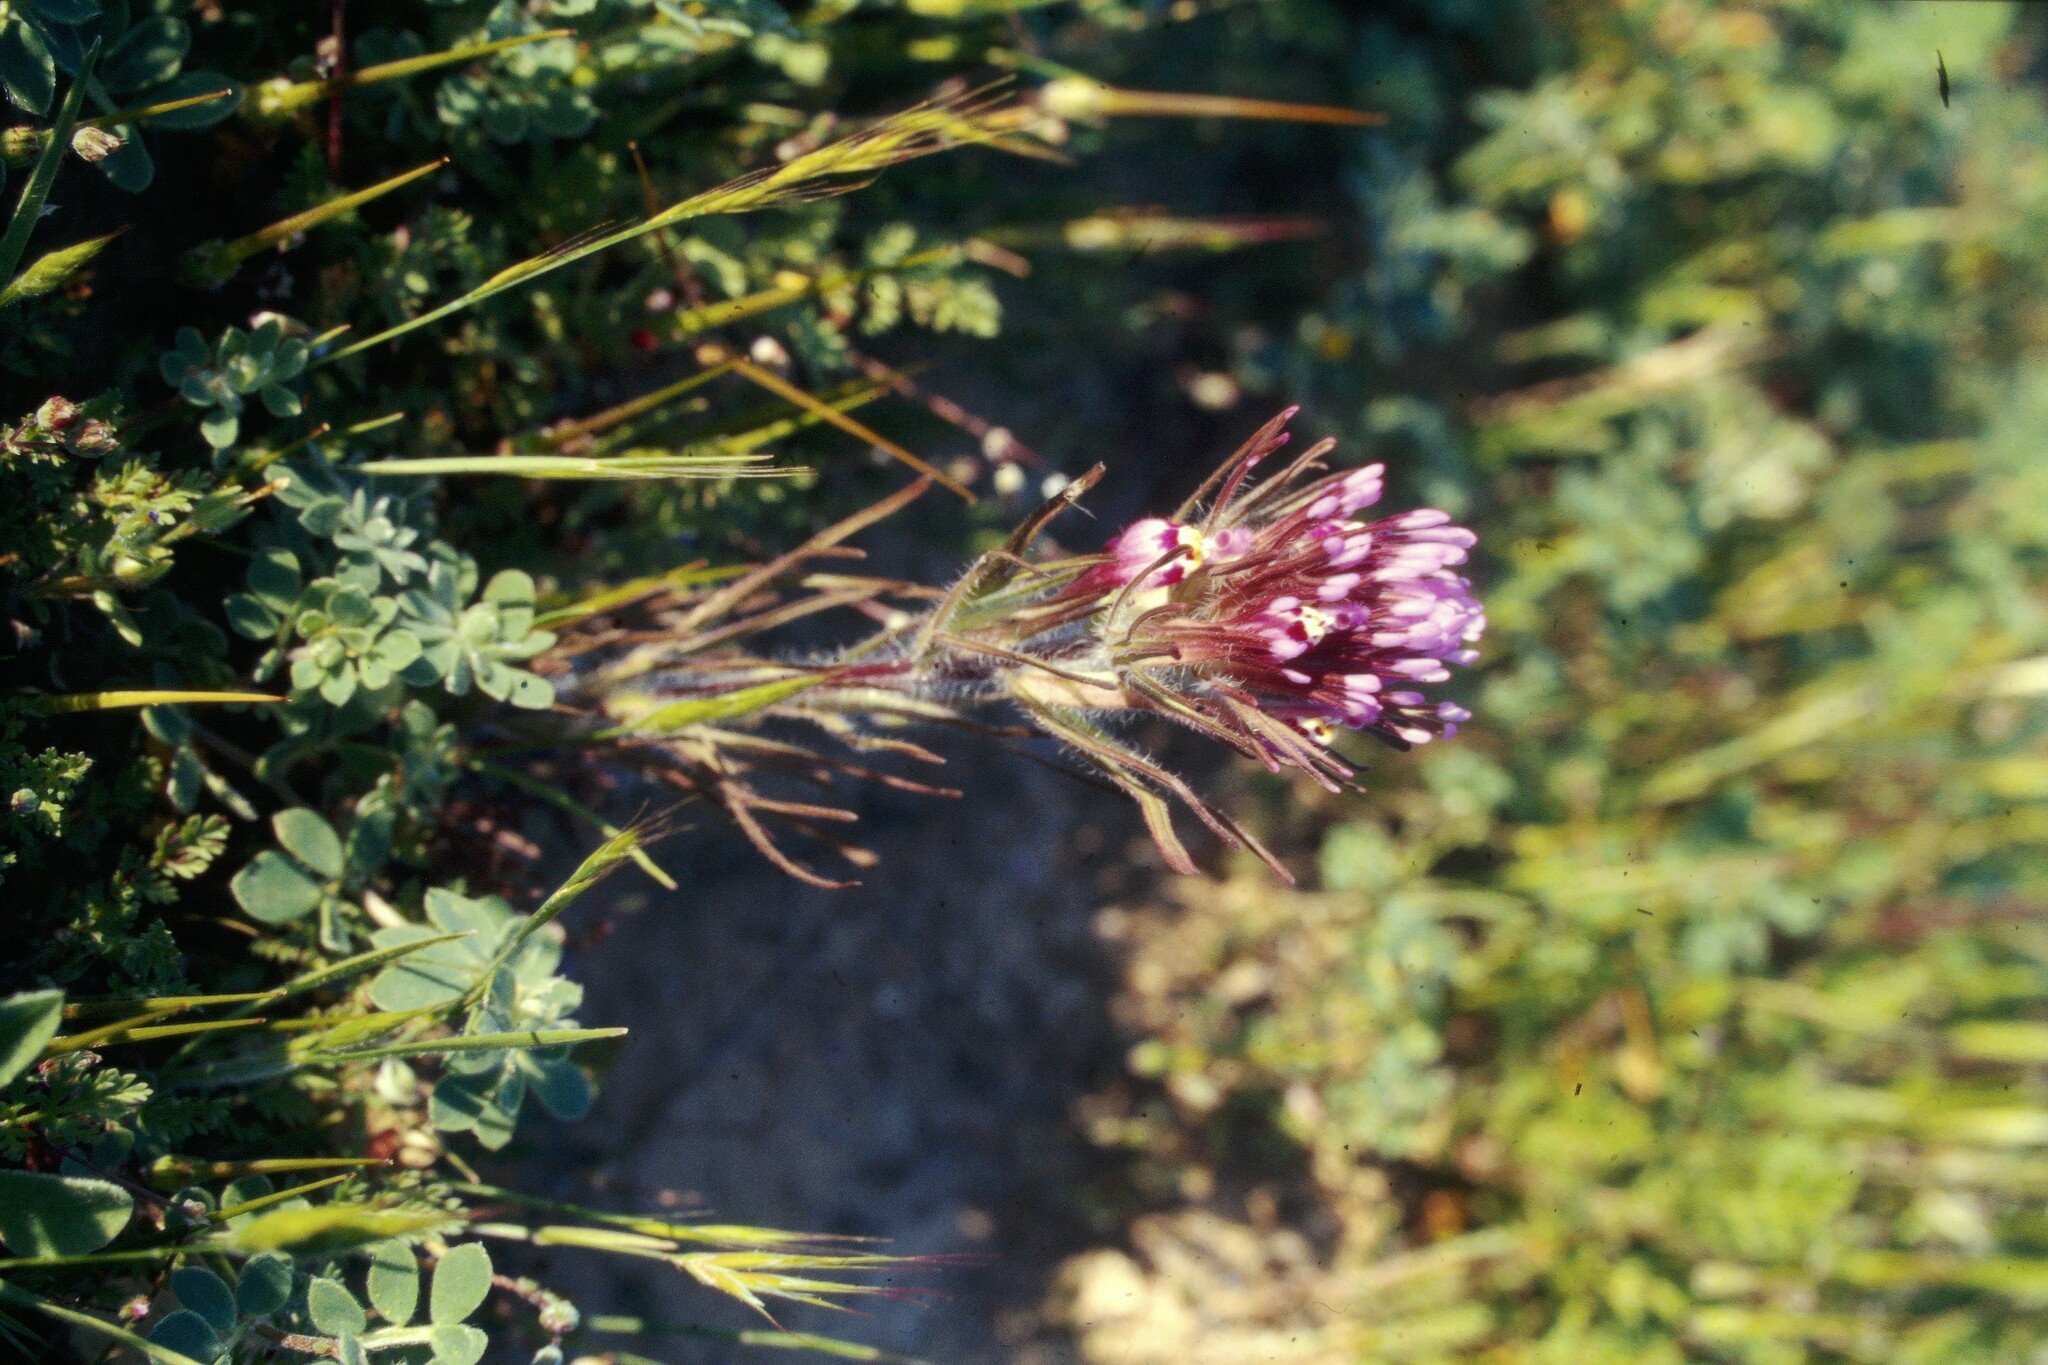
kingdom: Plantae
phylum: Tracheophyta
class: Magnoliopsida
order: Lamiales
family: Orobanchaceae
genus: Castilleja
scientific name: Castilleja exserta
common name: Purple owl-clover
